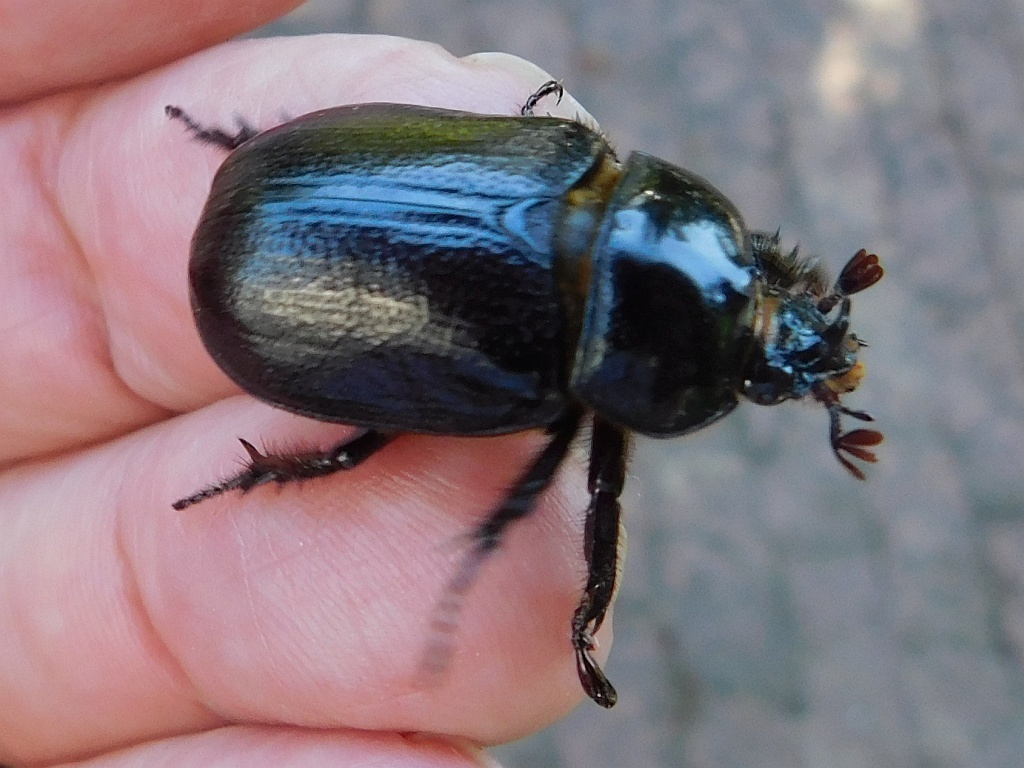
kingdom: Animalia
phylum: Arthropoda
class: Insecta
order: Coleoptera
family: Scarabaeidae
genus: Cyphonistes
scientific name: Cyphonistes vallatus
